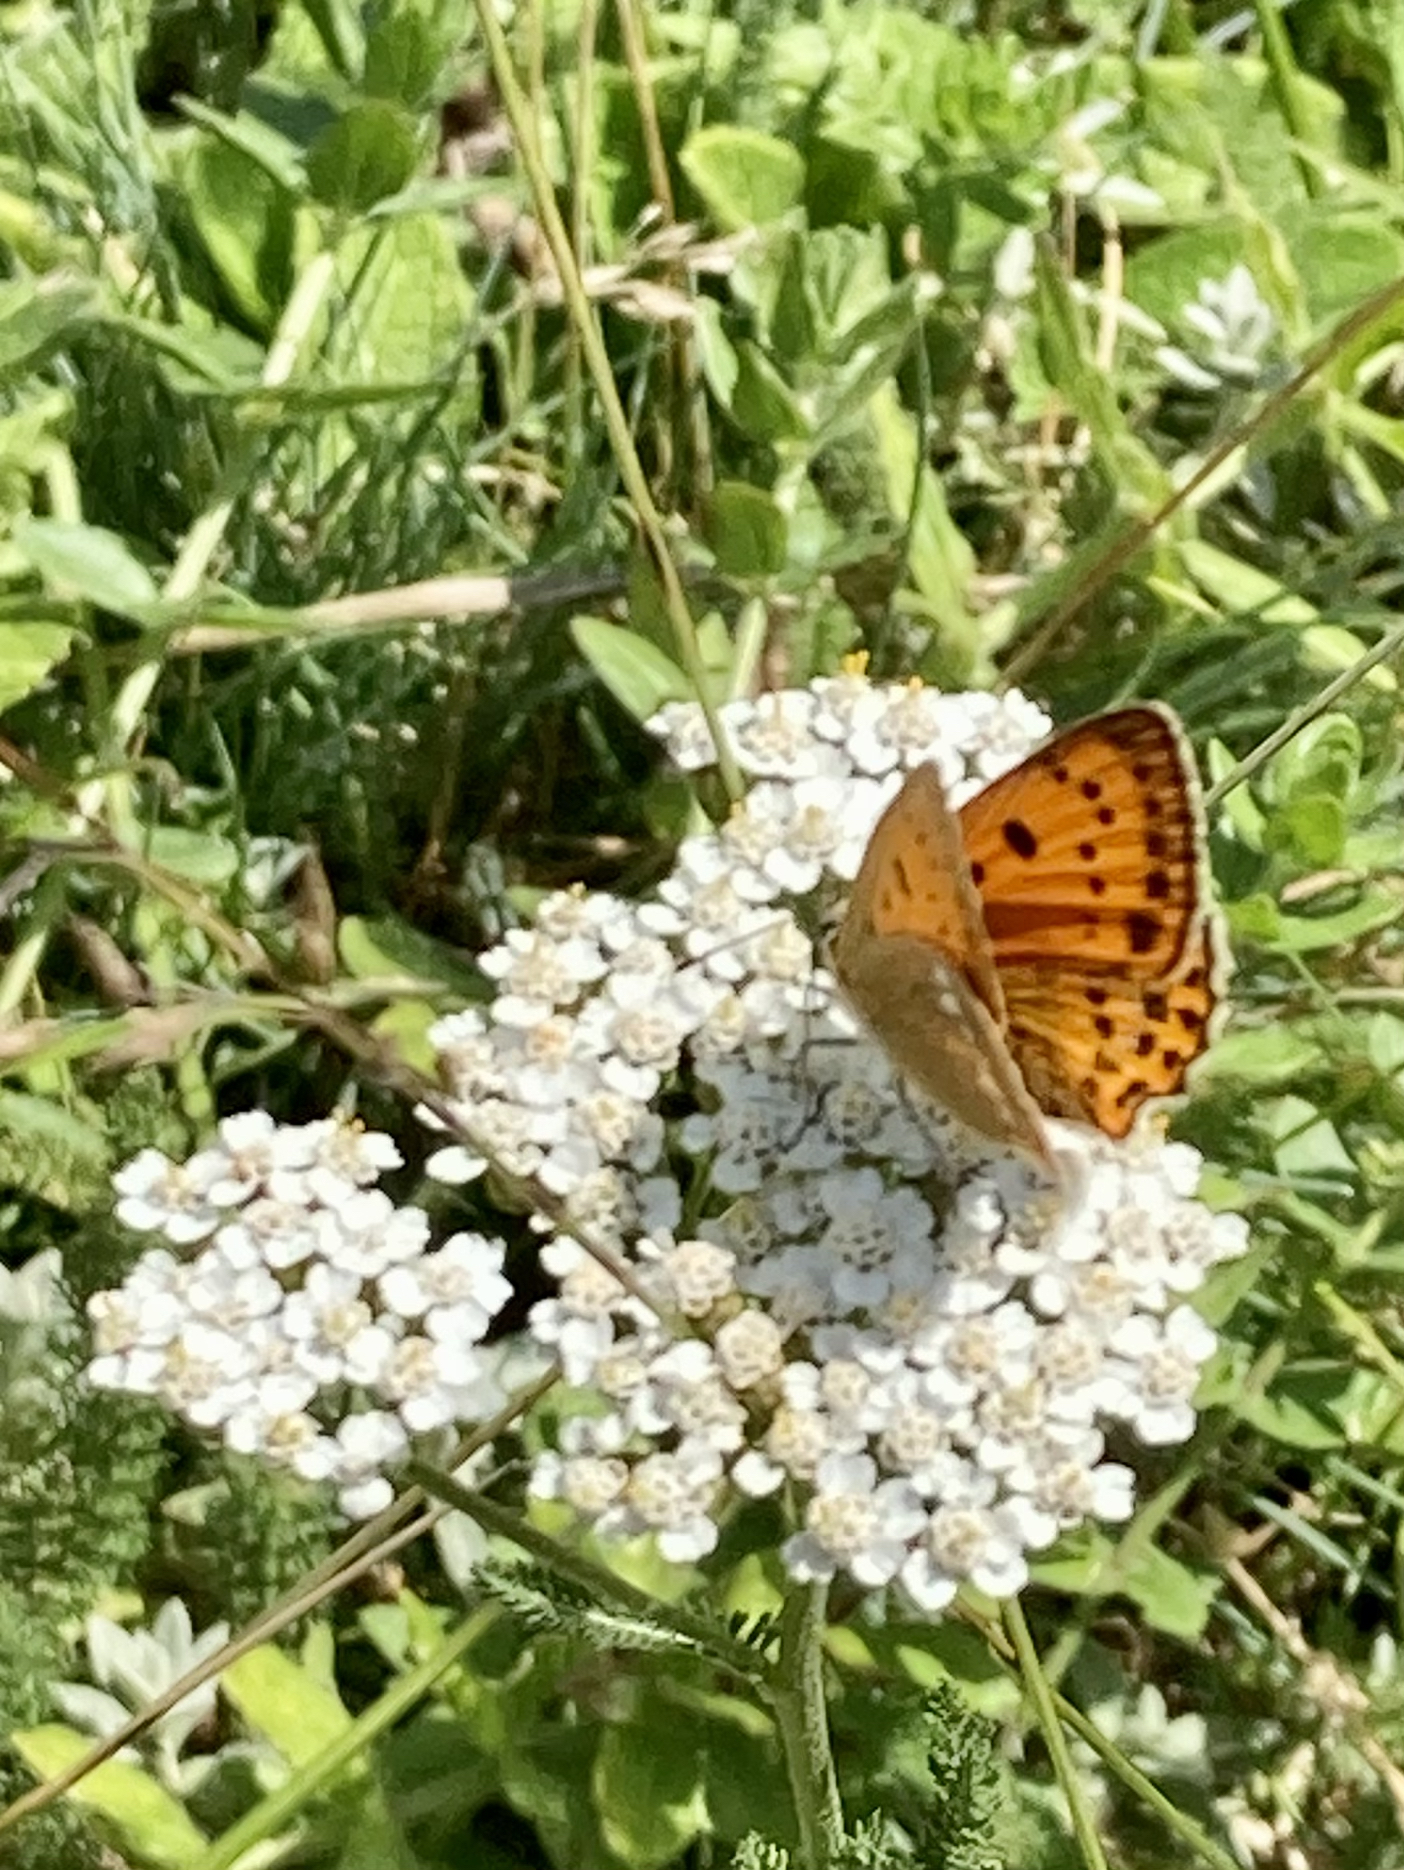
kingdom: Animalia
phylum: Arthropoda
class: Insecta
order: Lepidoptera
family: Lycaenidae
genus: Lycaena
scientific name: Lycaena virgaureae
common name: Scarce copper
